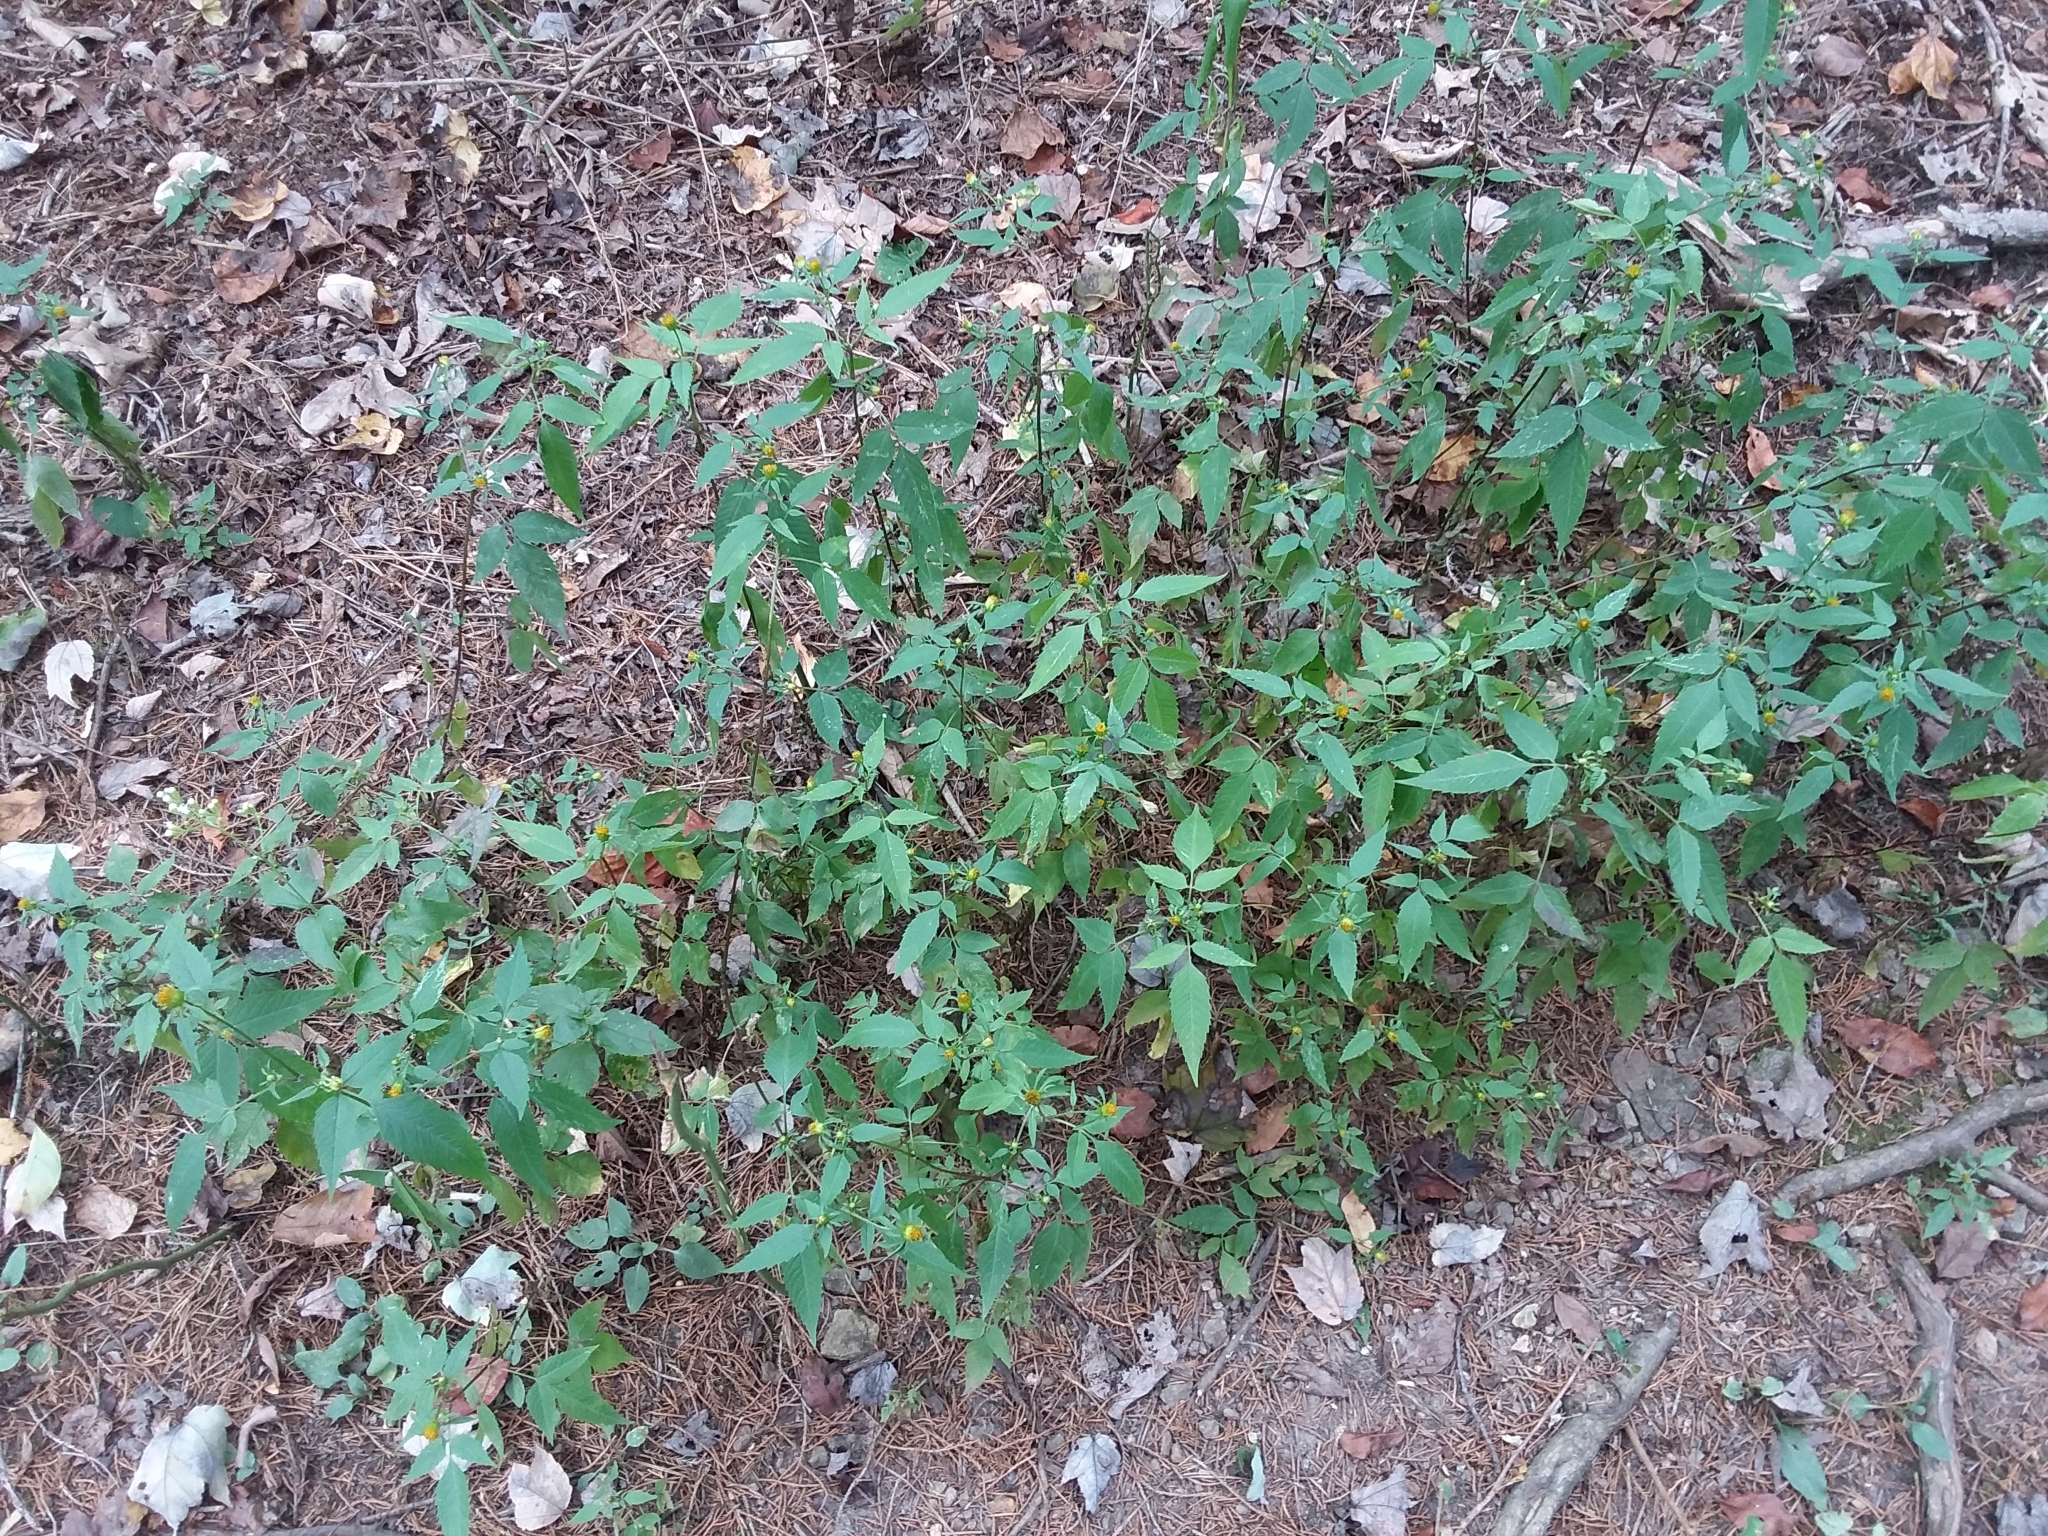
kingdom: Plantae
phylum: Tracheophyta
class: Magnoliopsida
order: Asterales
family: Asteraceae
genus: Bidens
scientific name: Bidens frondosa
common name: Beggarticks
